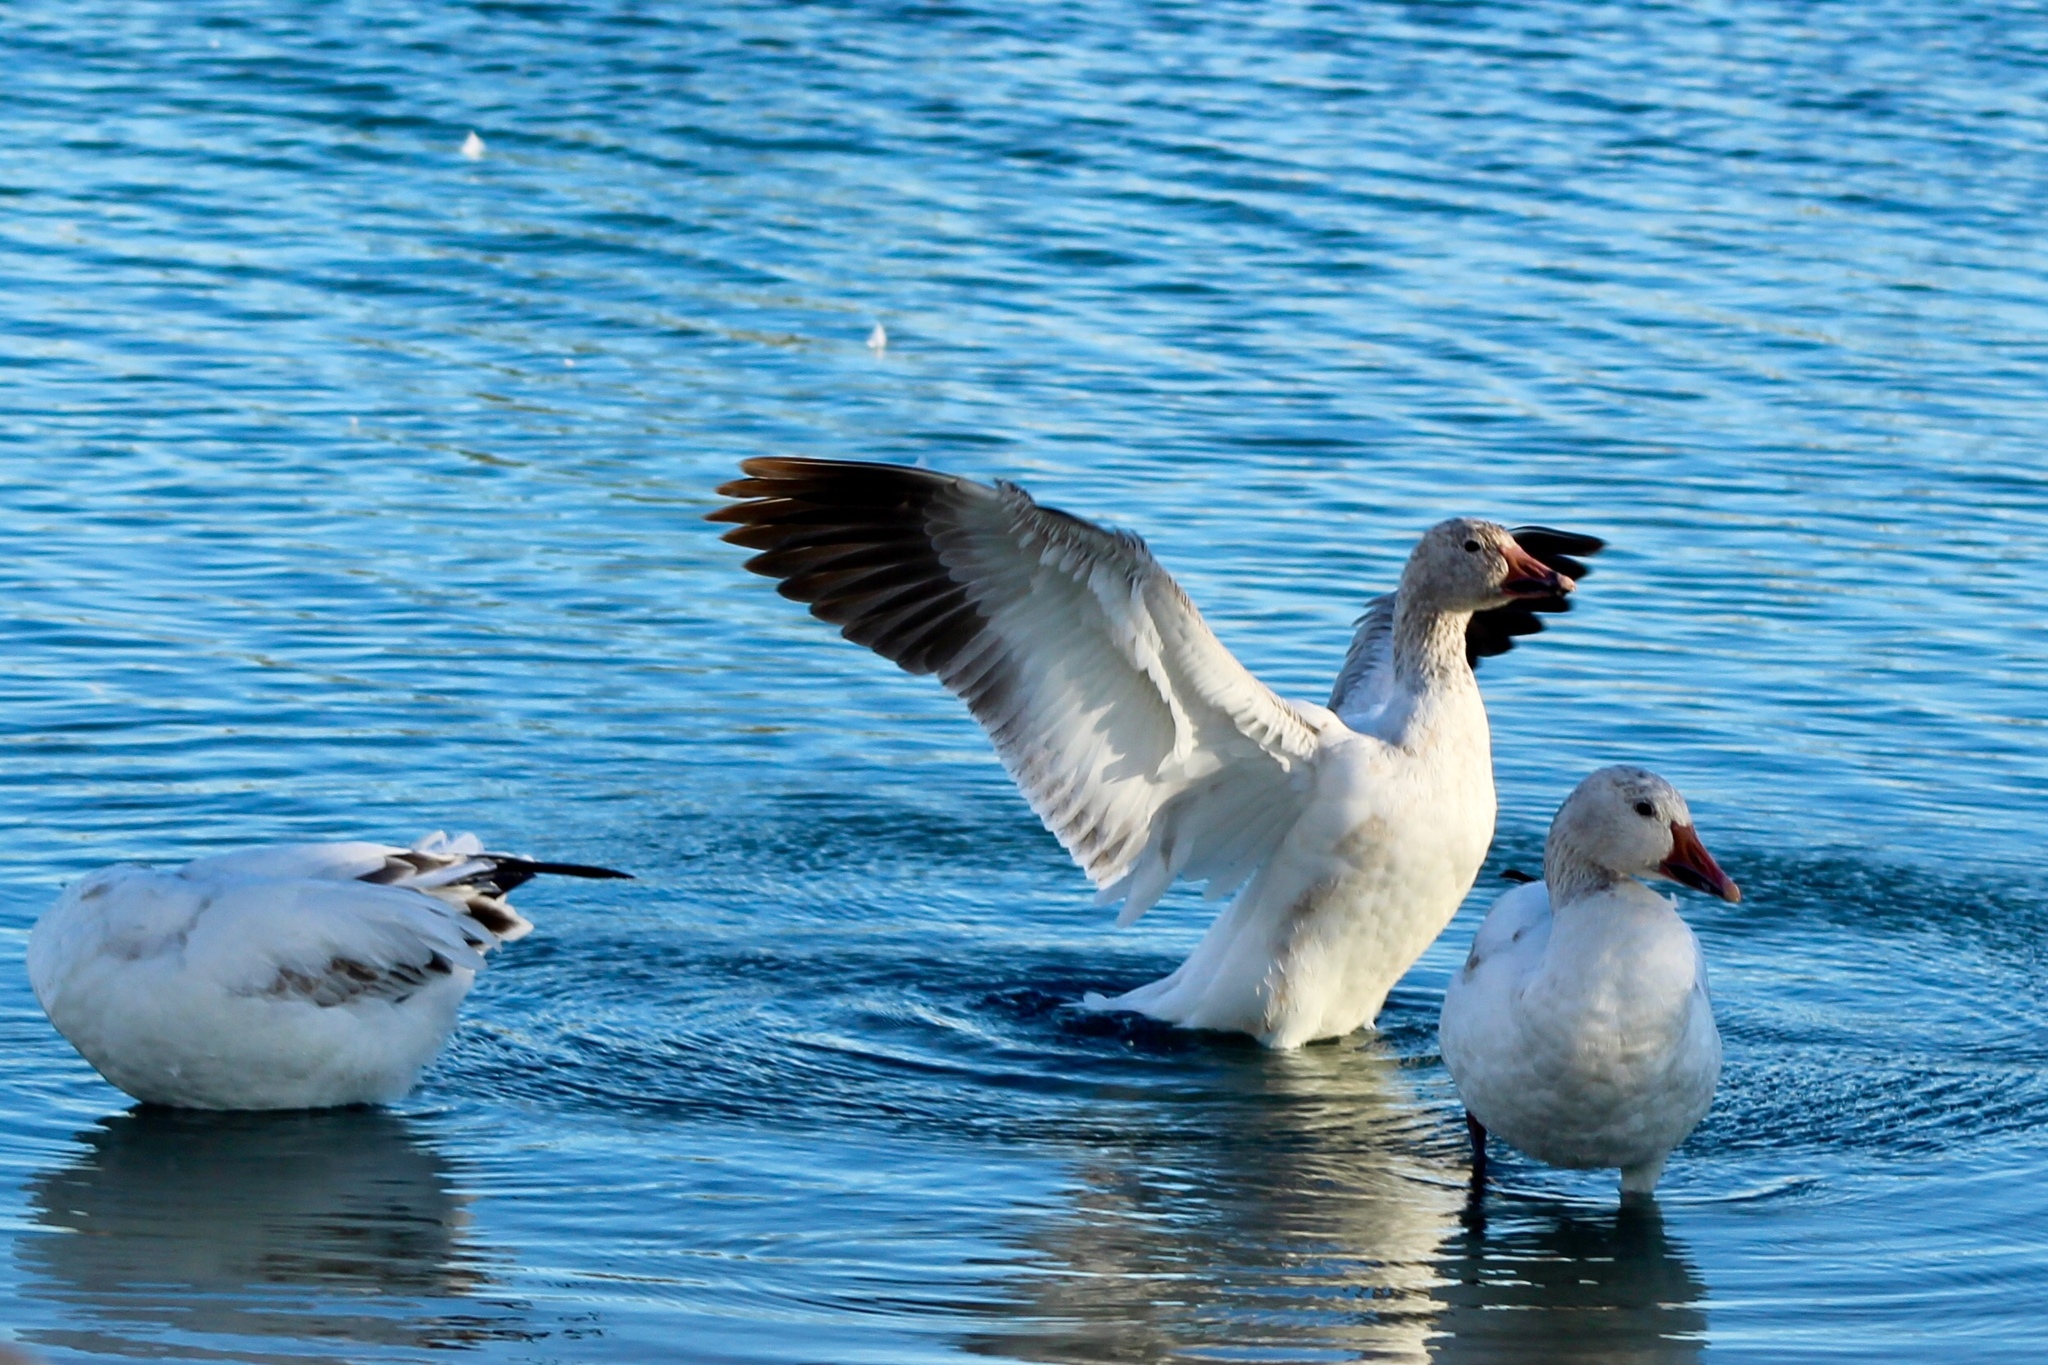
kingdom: Animalia
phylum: Chordata
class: Aves
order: Anseriformes
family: Anatidae
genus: Anser
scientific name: Anser caerulescens
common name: Snow goose
